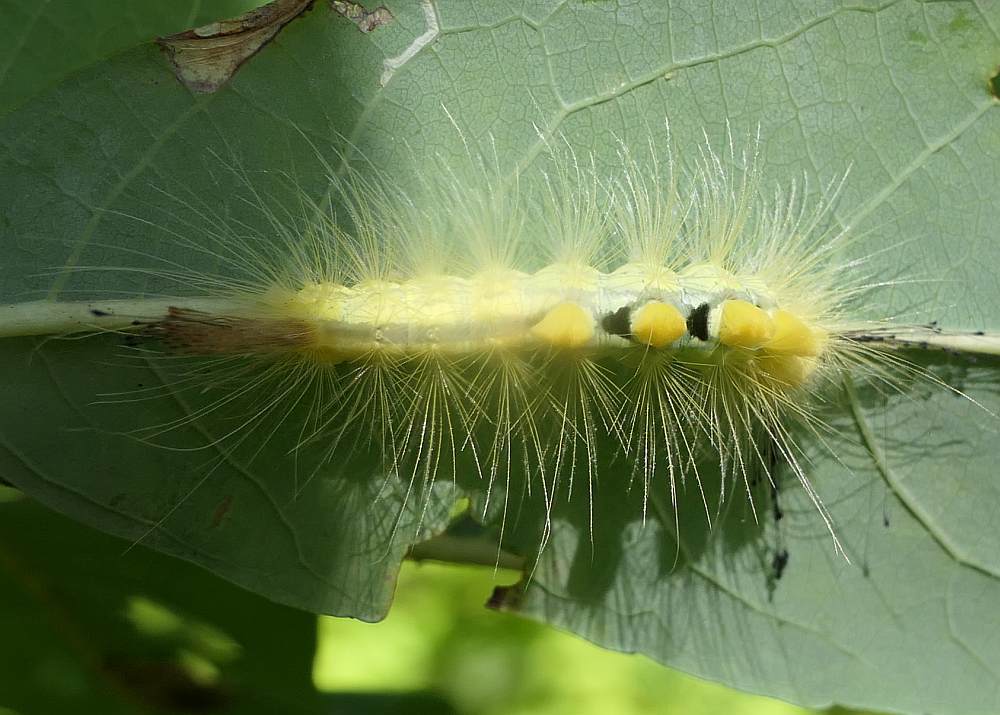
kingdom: Animalia
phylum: Arthropoda
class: Insecta
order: Lepidoptera
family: Erebidae
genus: Orgyia
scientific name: Orgyia definita
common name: Definite tussock moth
